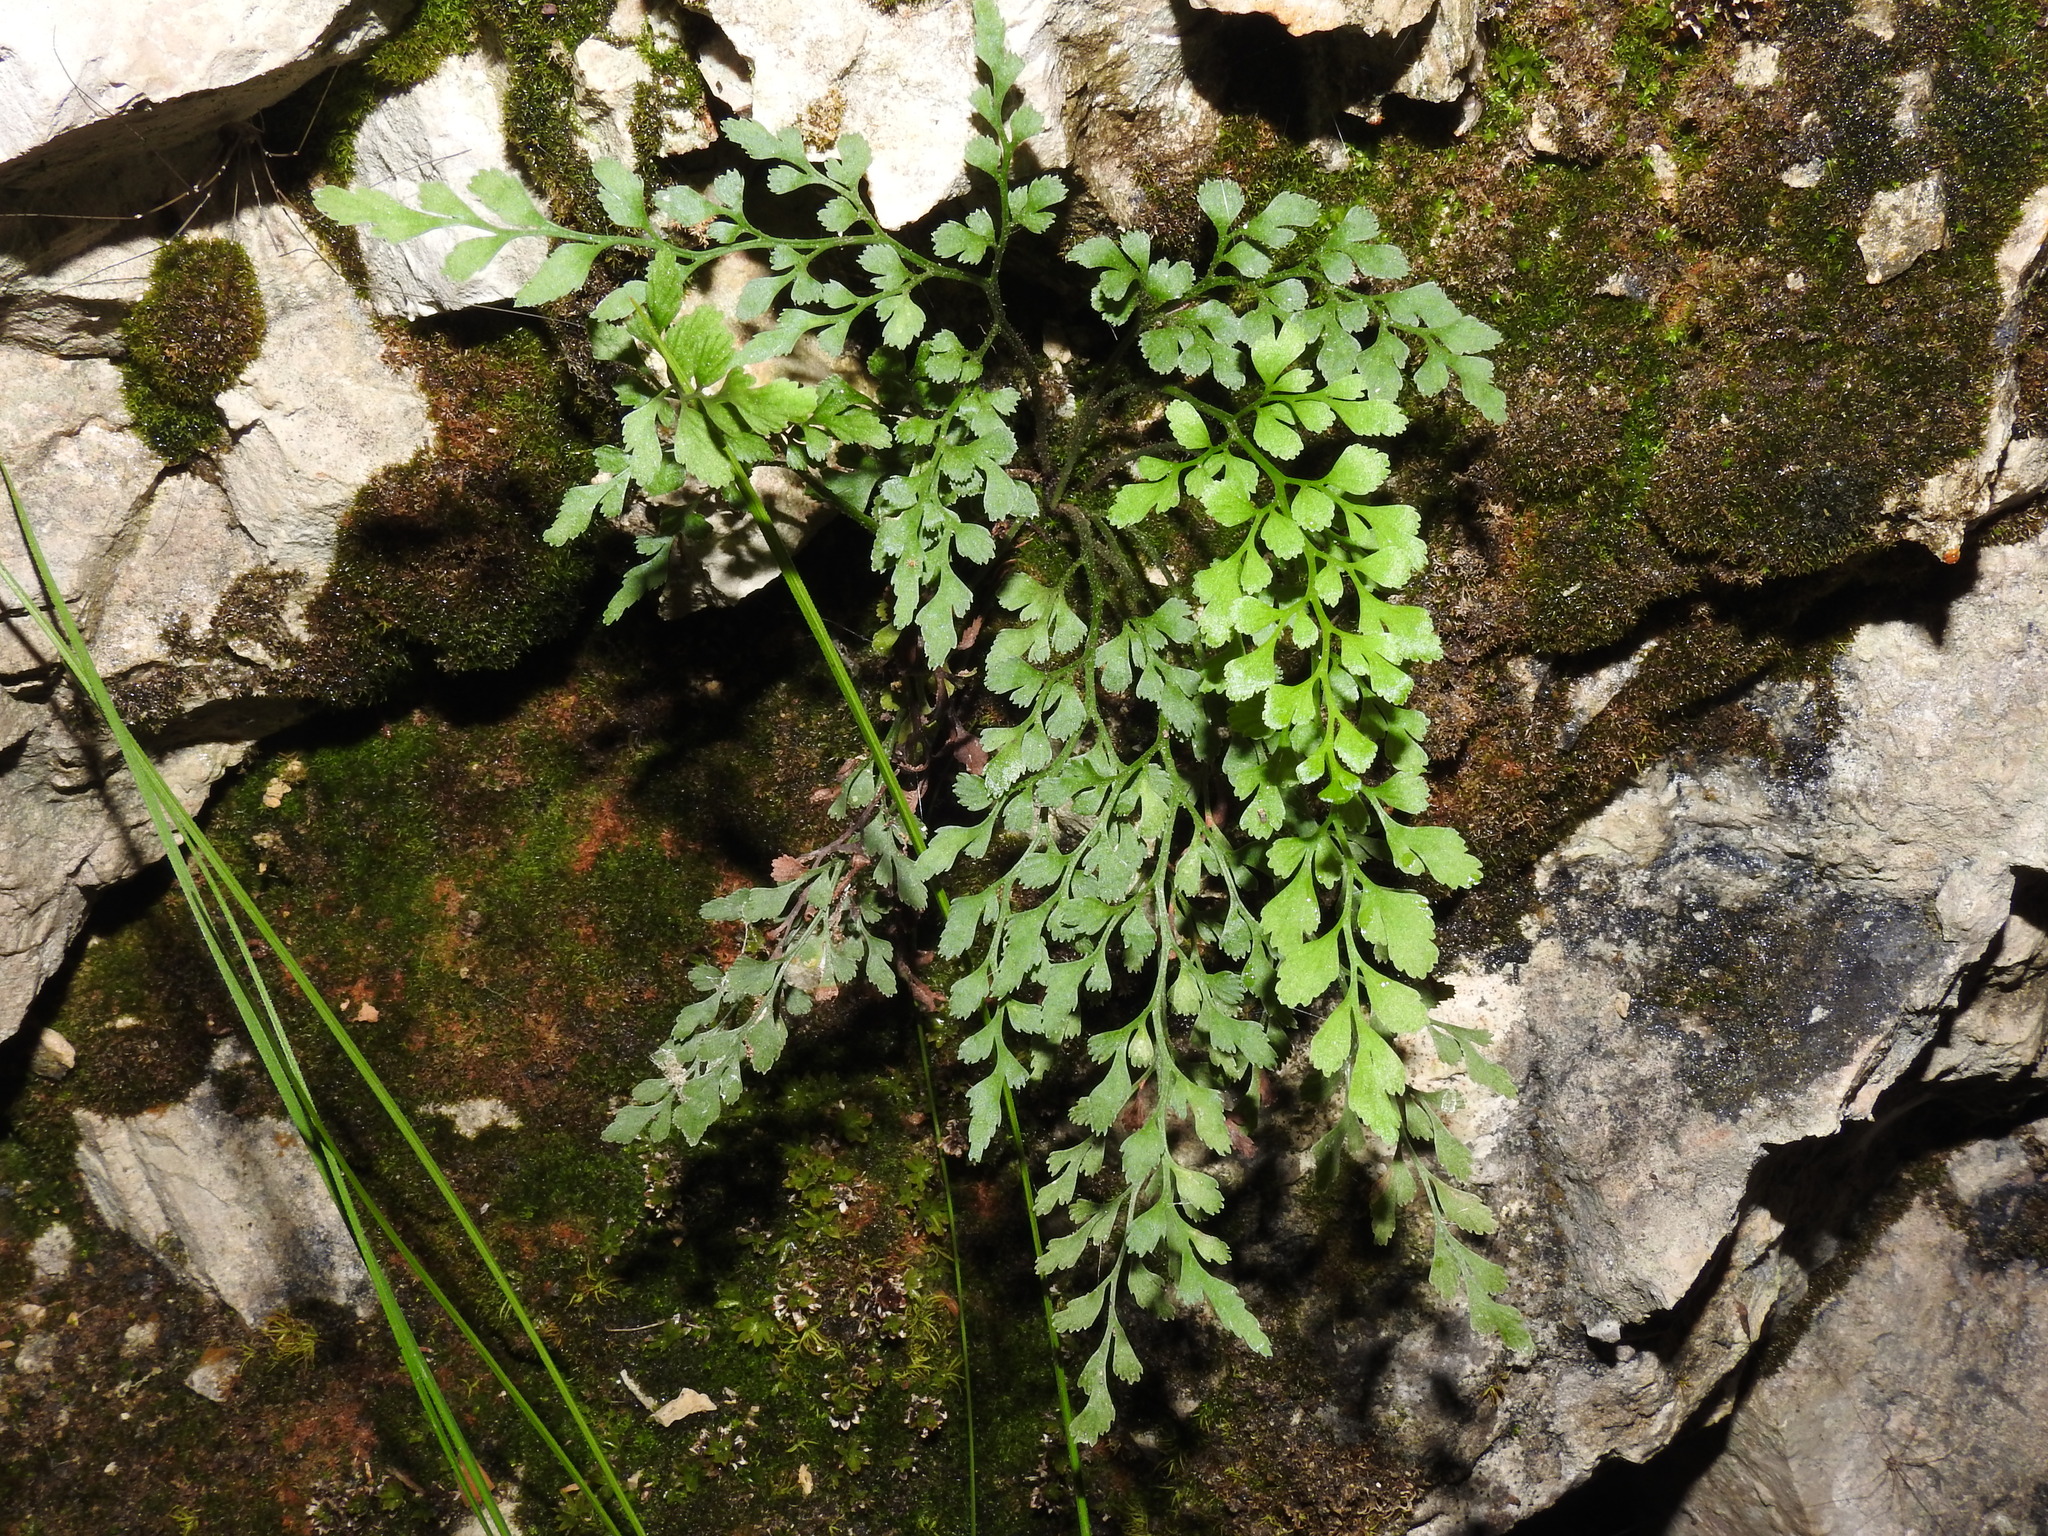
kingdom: Plantae
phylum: Tracheophyta
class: Polypodiopsida
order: Polypodiales
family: Aspleniaceae
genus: Asplenium
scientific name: Asplenium ruta-muraria
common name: Wall-rue
